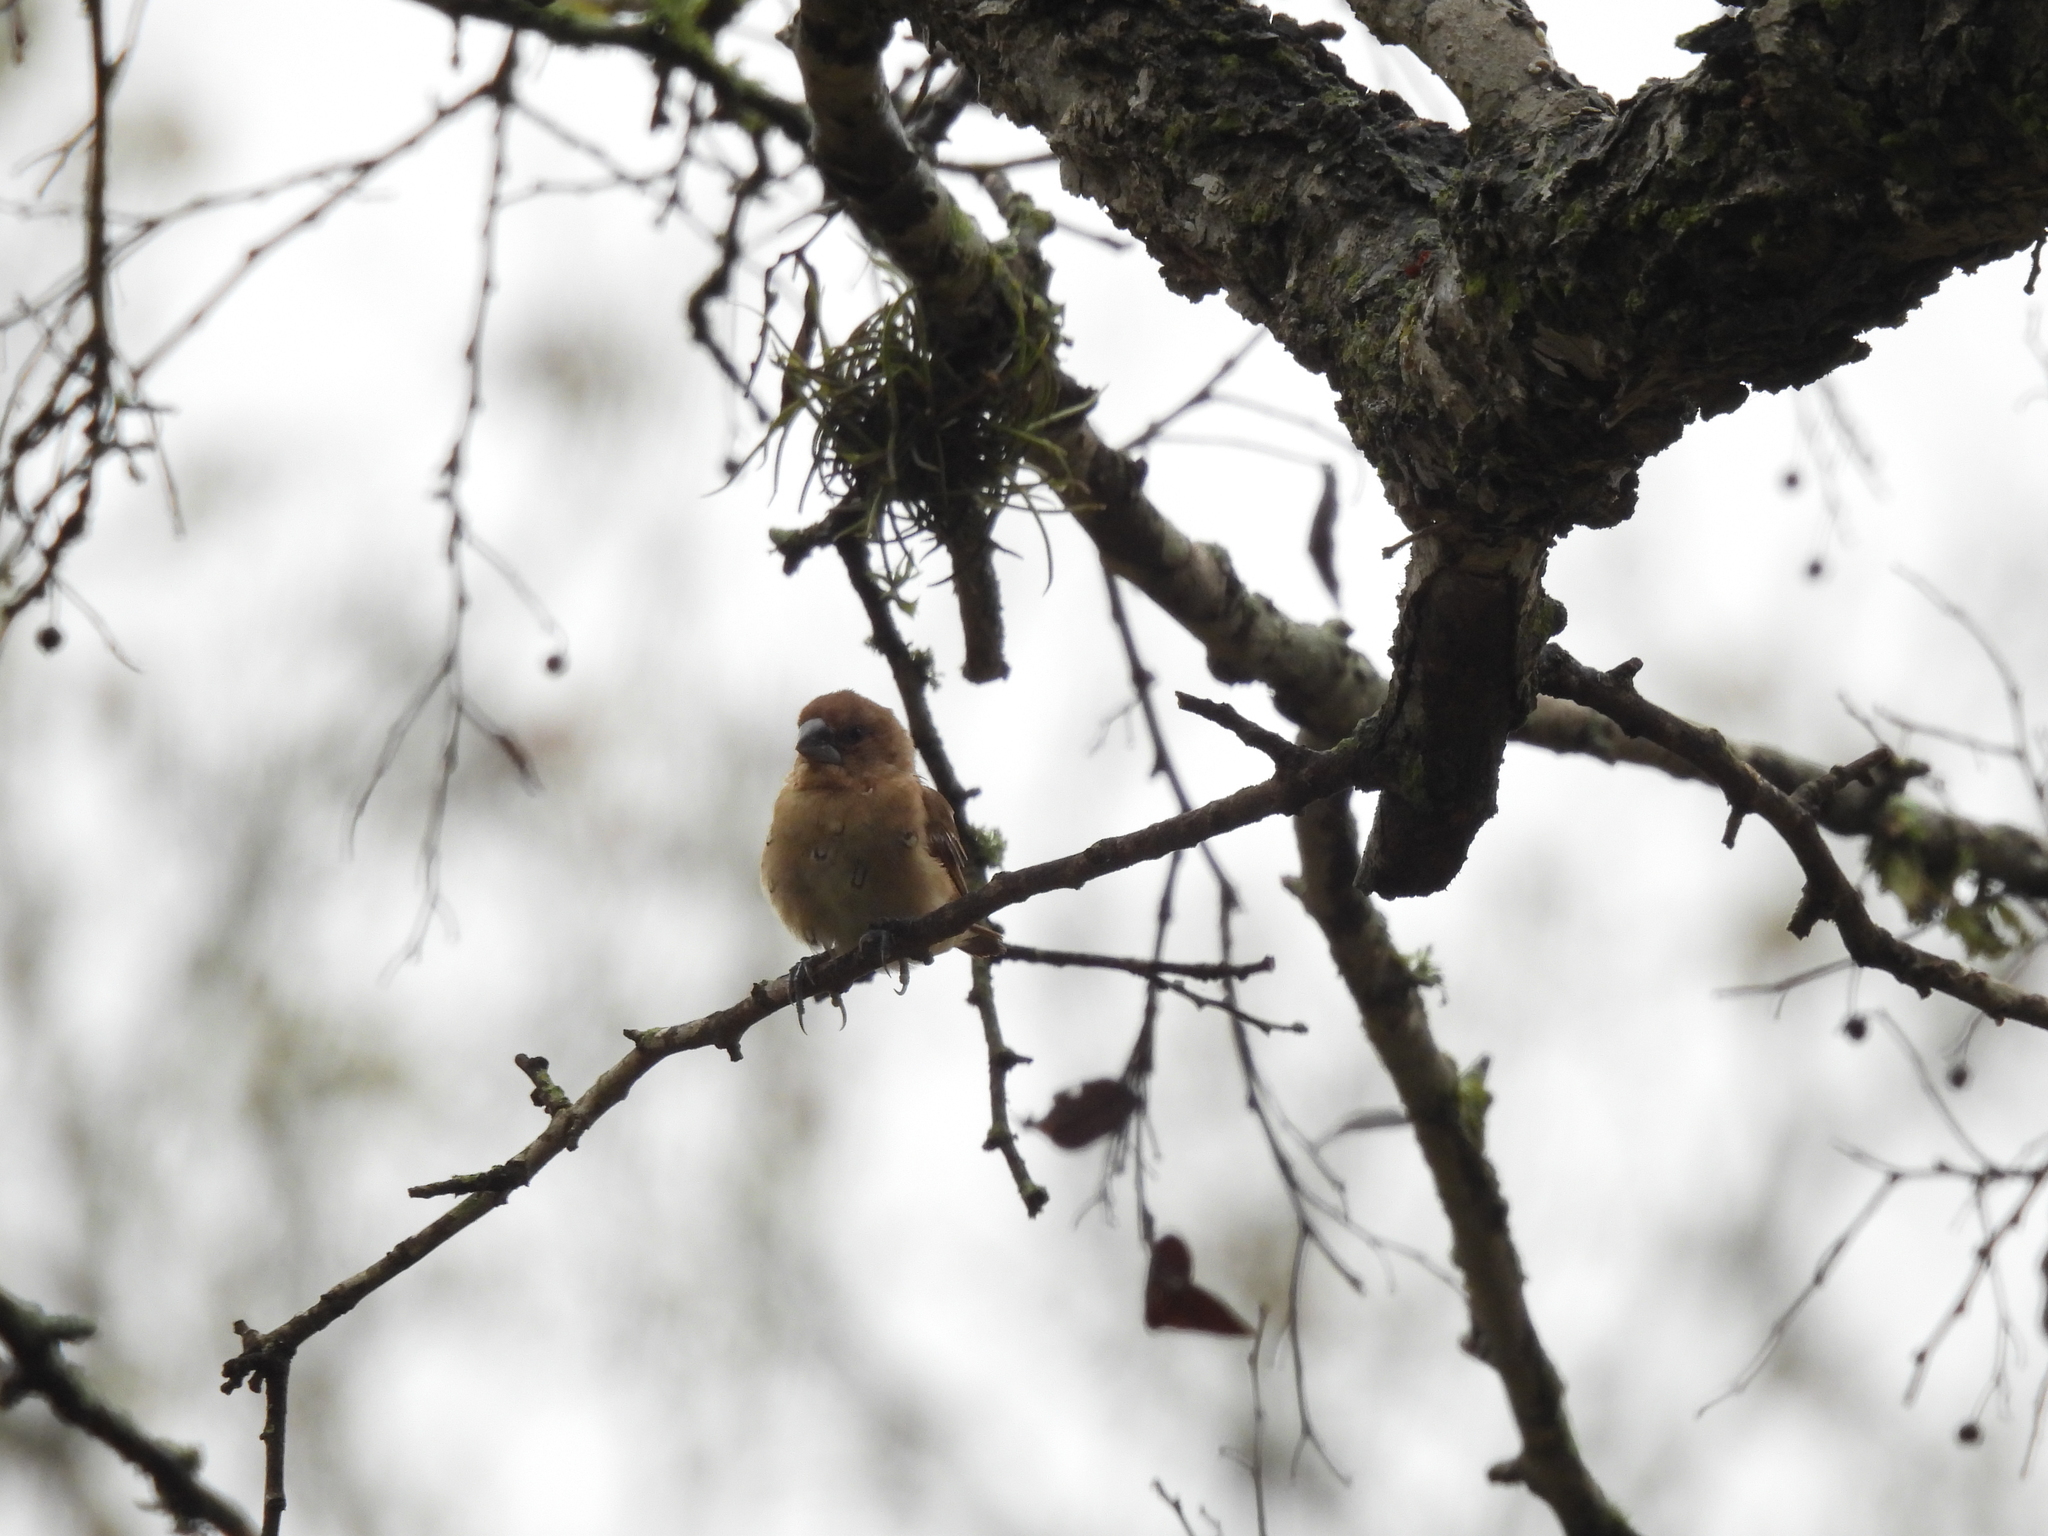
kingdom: Animalia
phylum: Chordata
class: Aves
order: Passeriformes
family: Estrildidae
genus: Lonchura
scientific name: Lonchura punctulata
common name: Scaly-breasted munia
